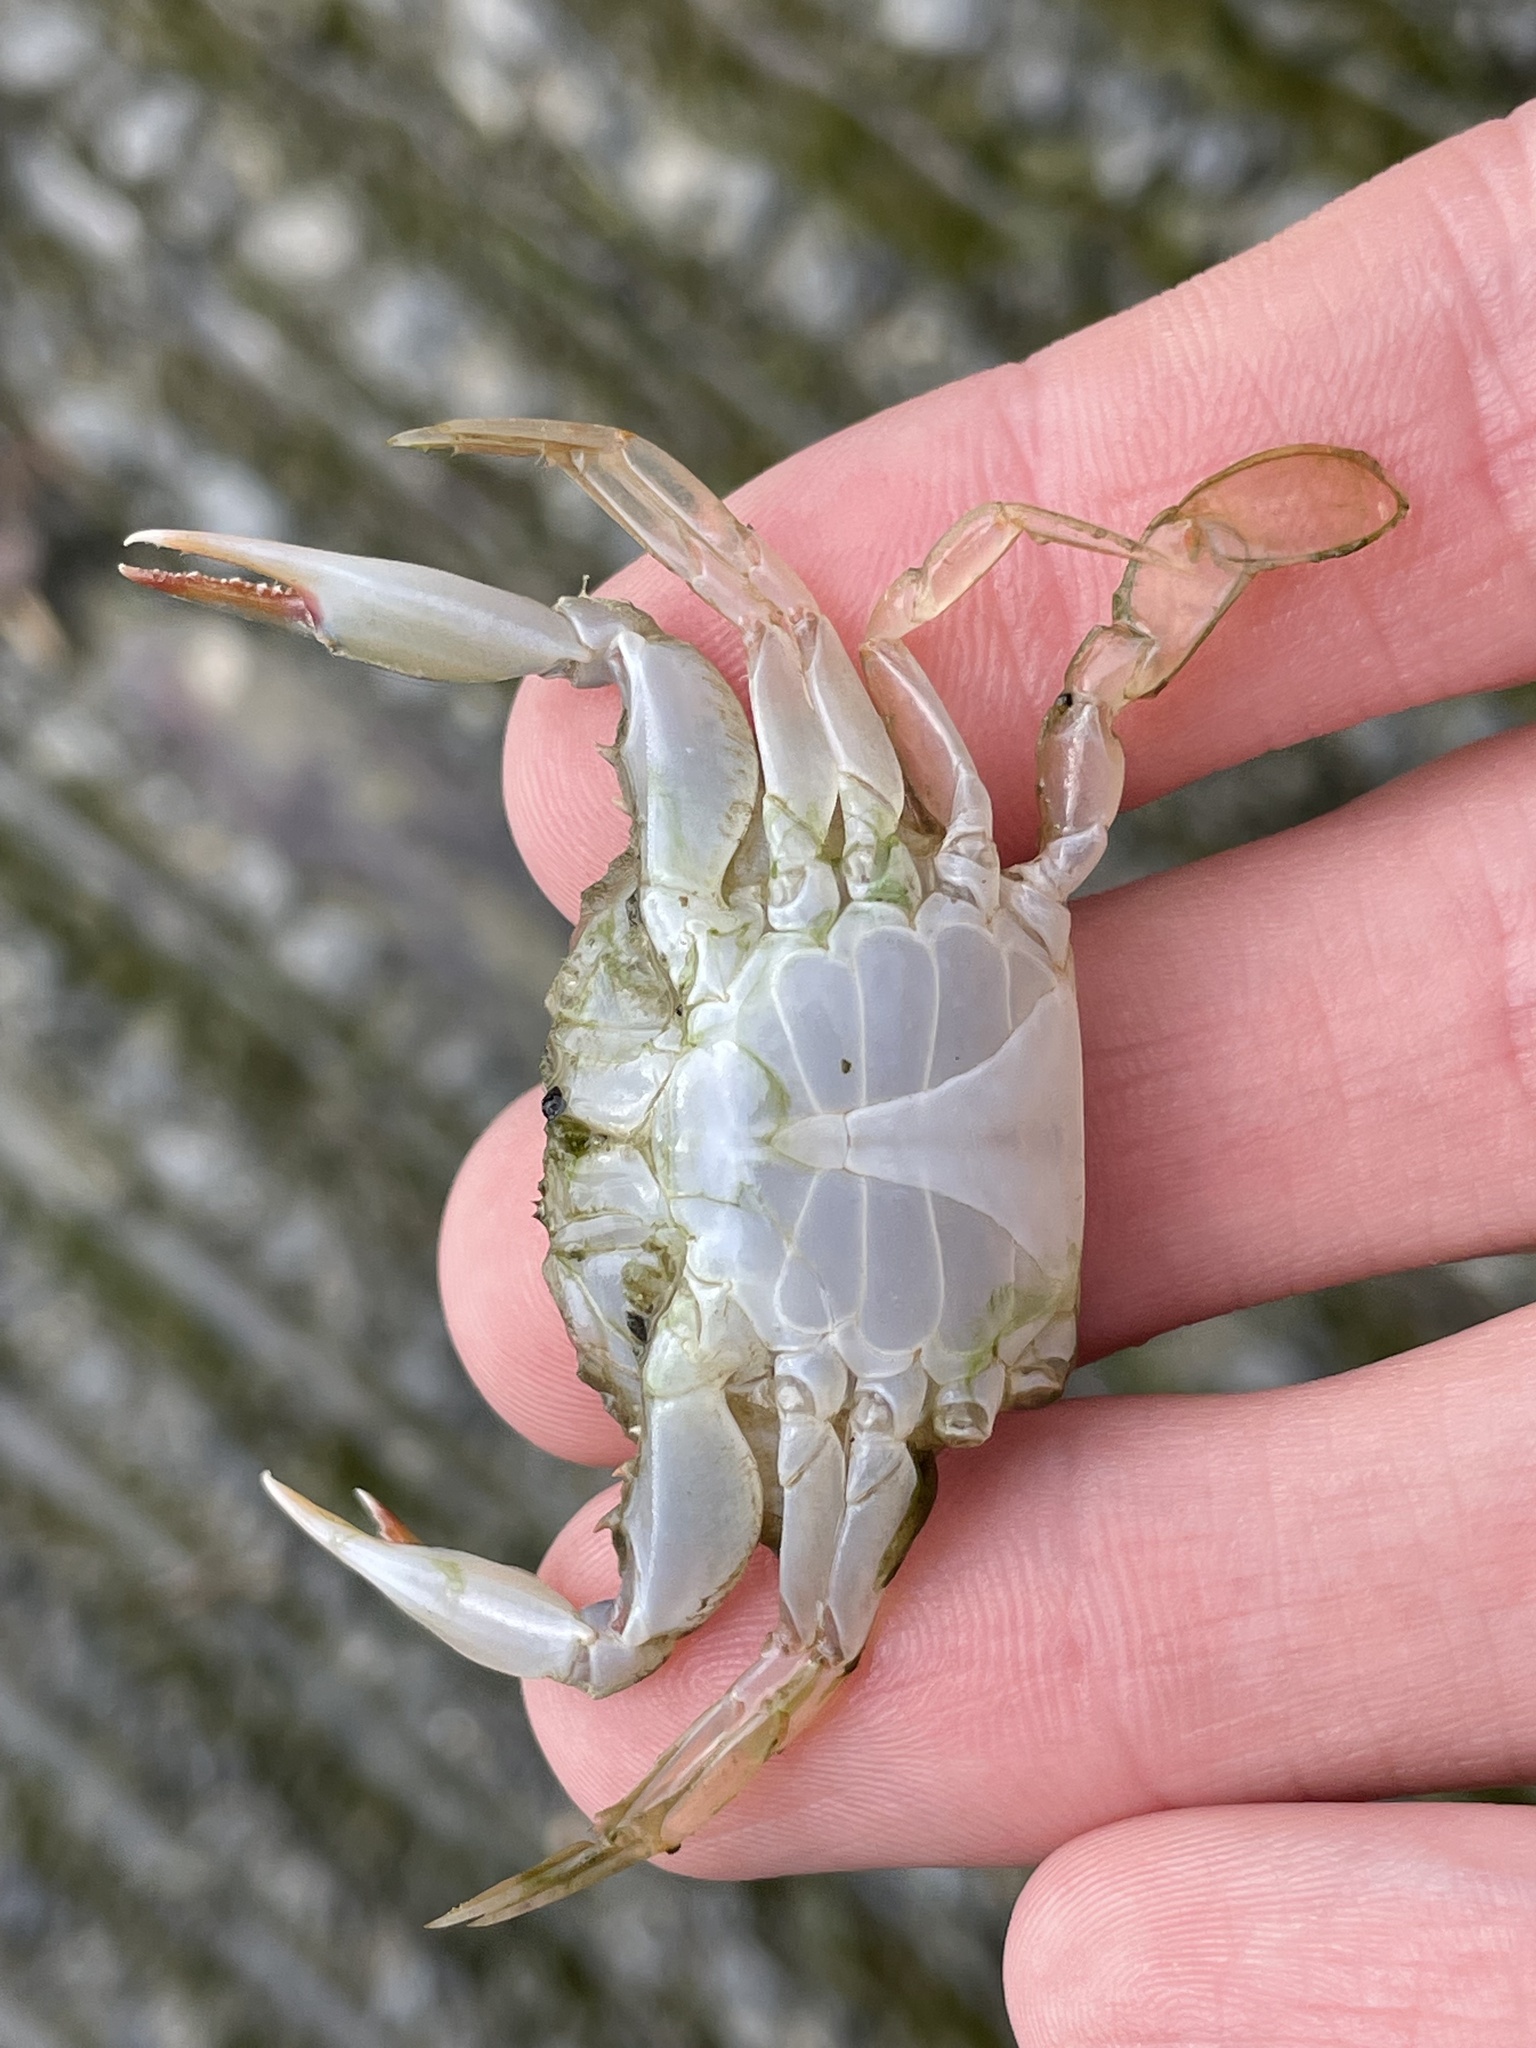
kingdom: Animalia
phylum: Arthropoda
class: Malacostraca
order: Decapoda
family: Portunidae
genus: Callinectes
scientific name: Callinectes sapidus
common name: Blue crab
